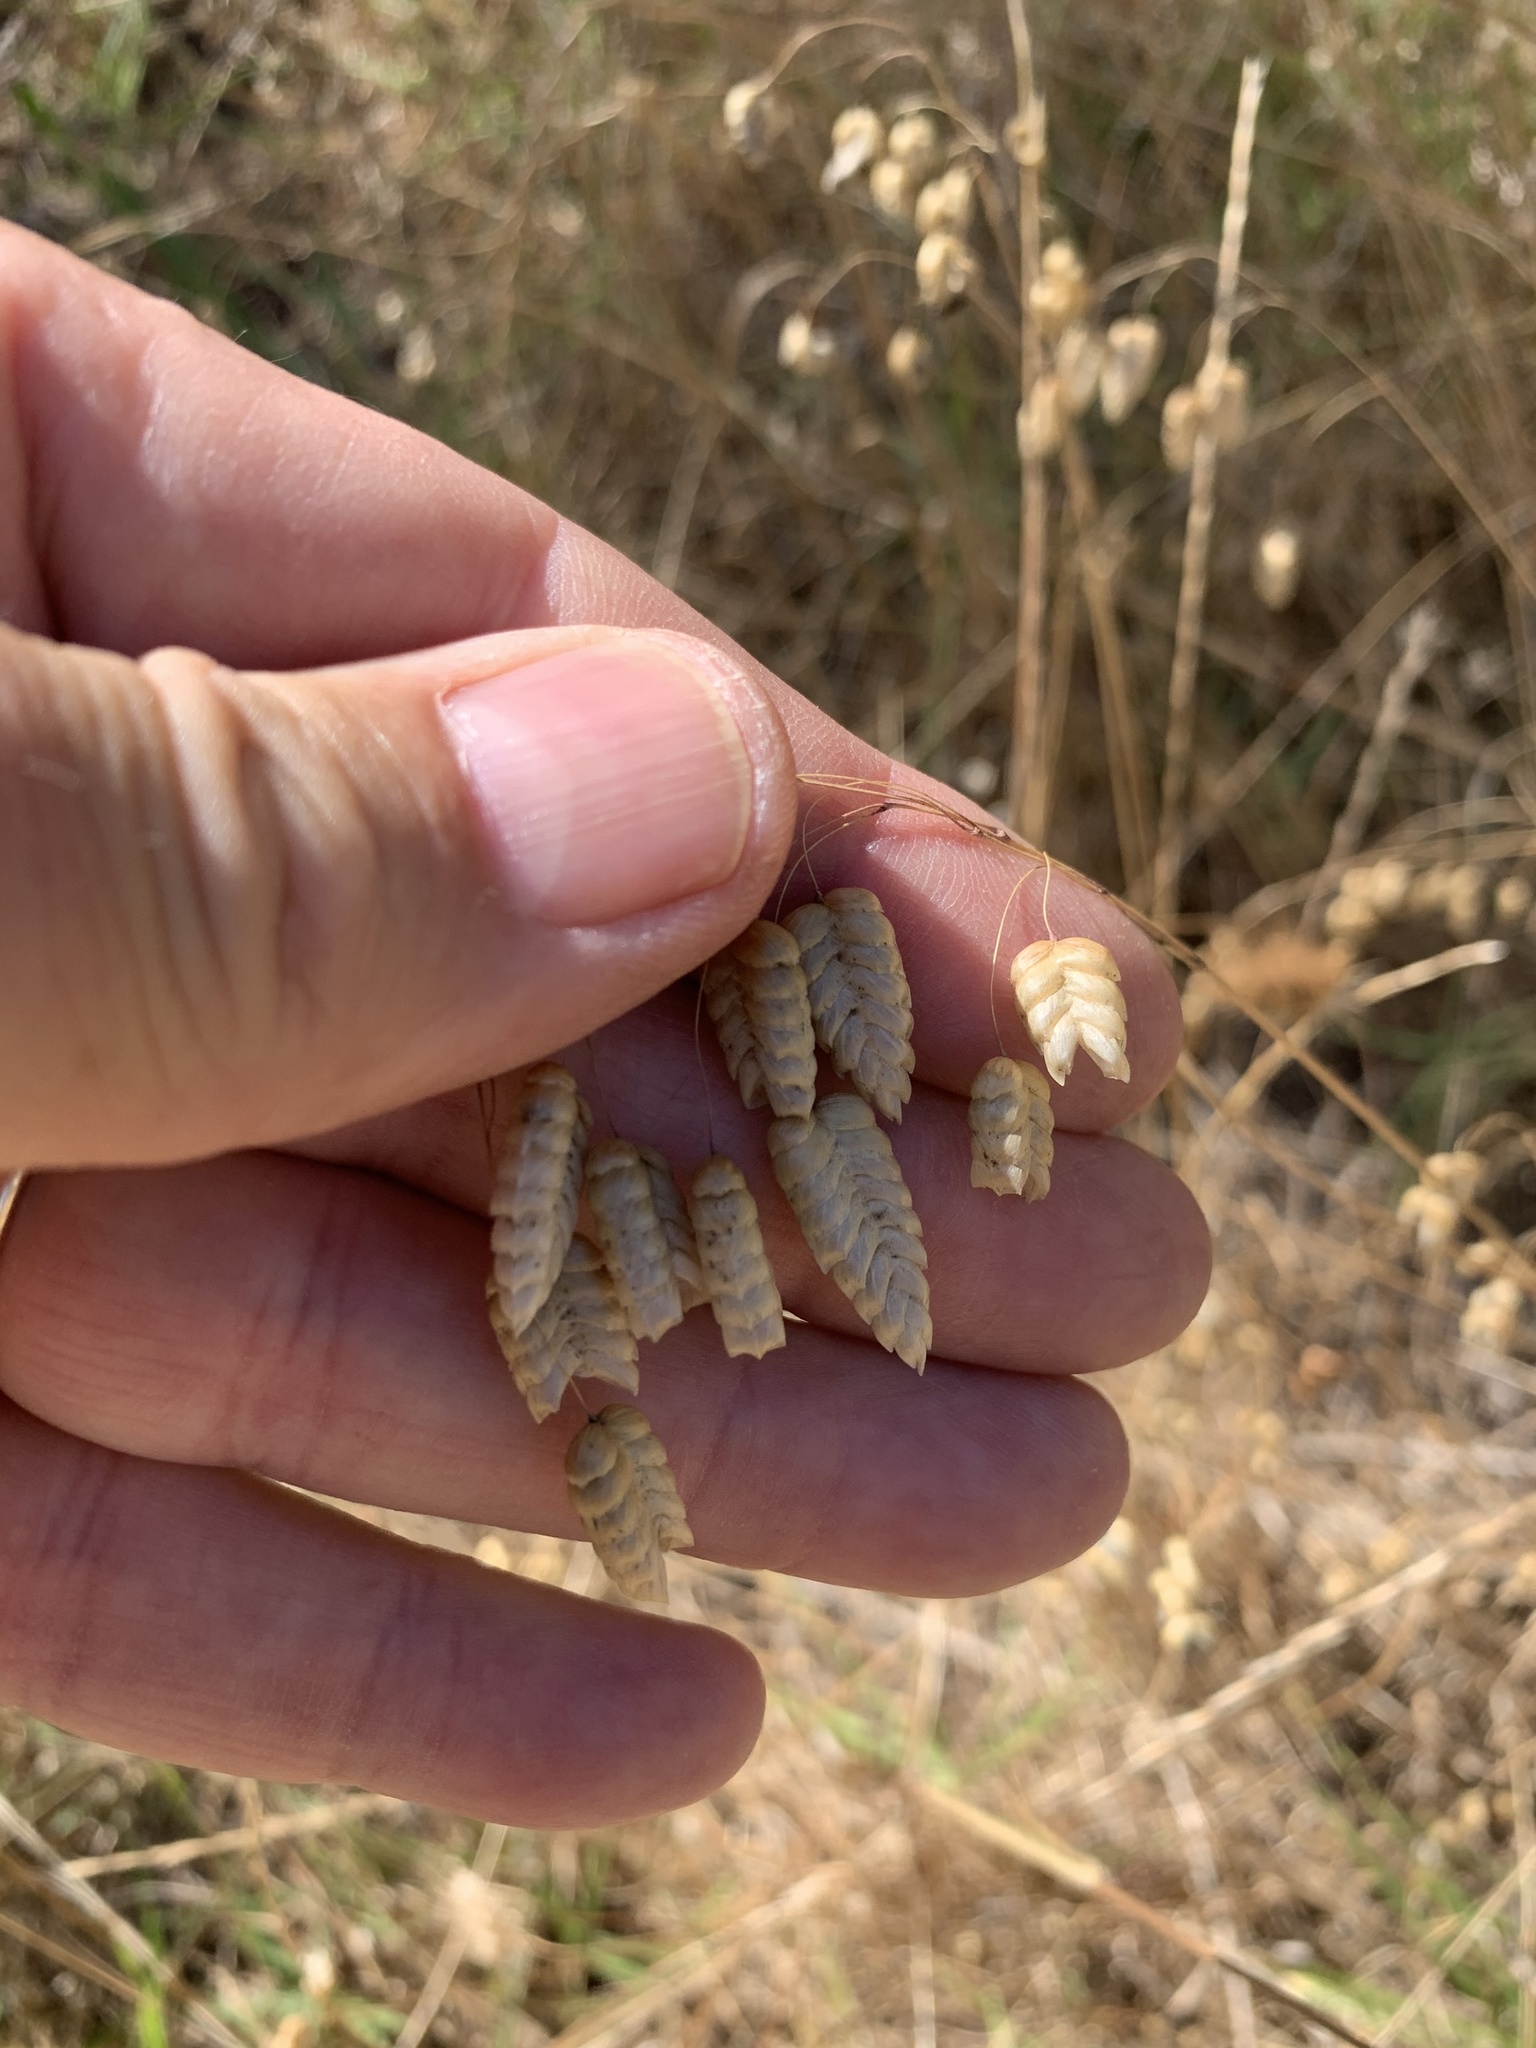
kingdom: Plantae
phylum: Tracheophyta
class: Liliopsida
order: Poales
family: Poaceae
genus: Briza
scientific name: Briza maxima
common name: Big quakinggrass
